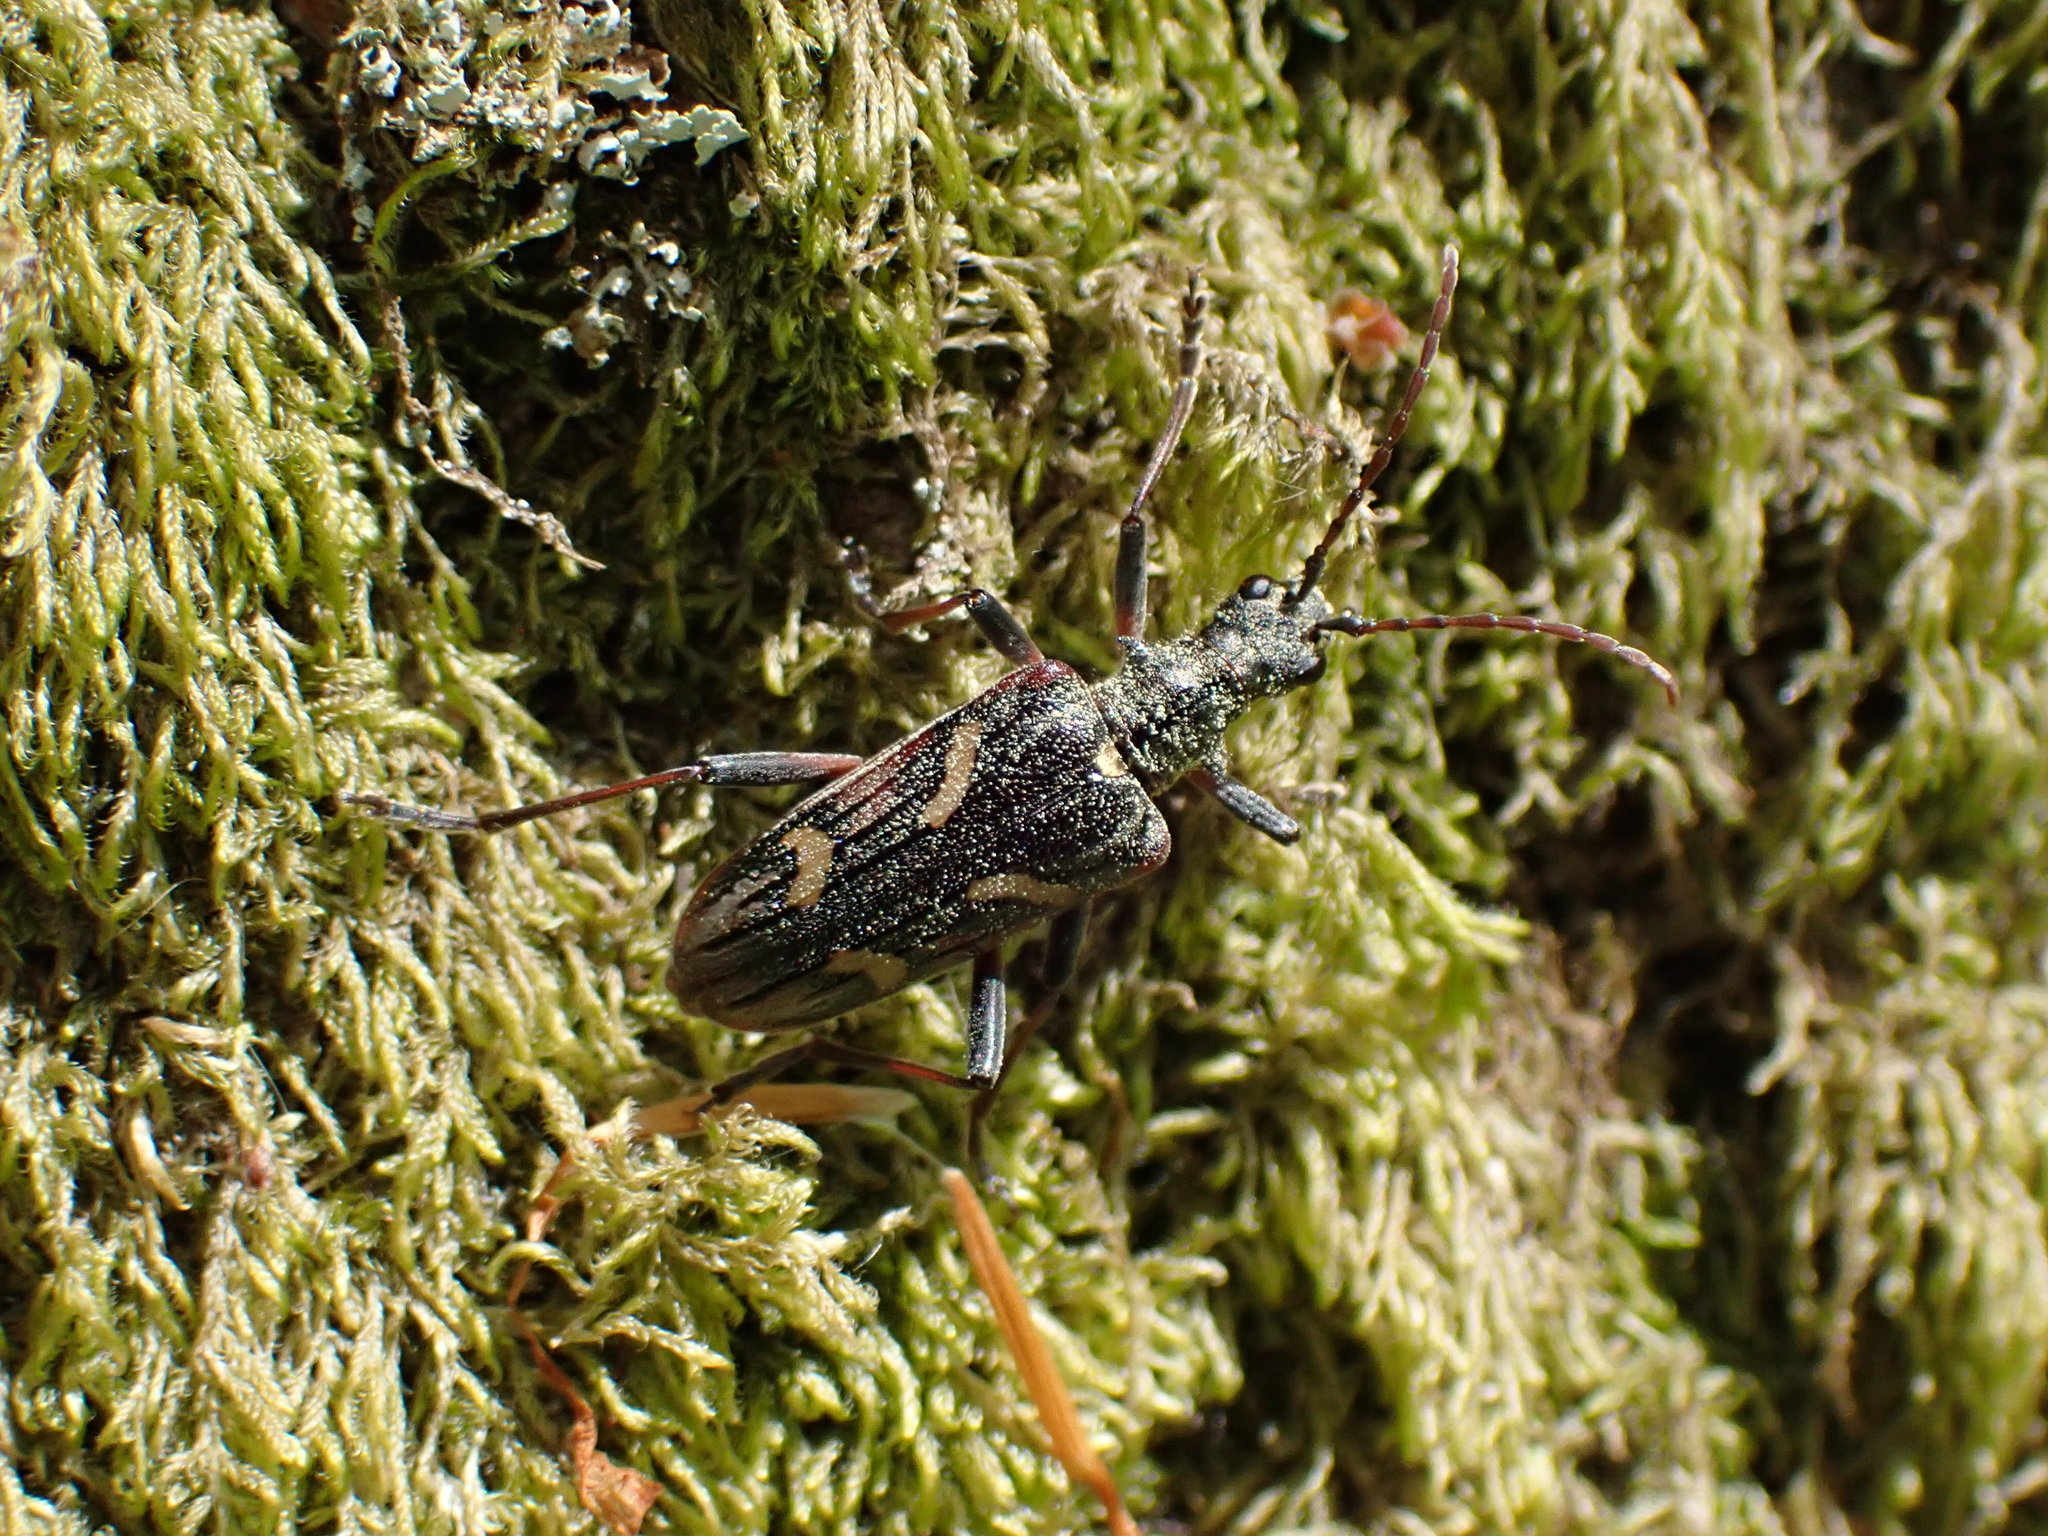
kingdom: Animalia
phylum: Arthropoda
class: Insecta
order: Coleoptera
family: Cerambycidae
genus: Rhagium
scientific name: Rhagium bifasciatum
